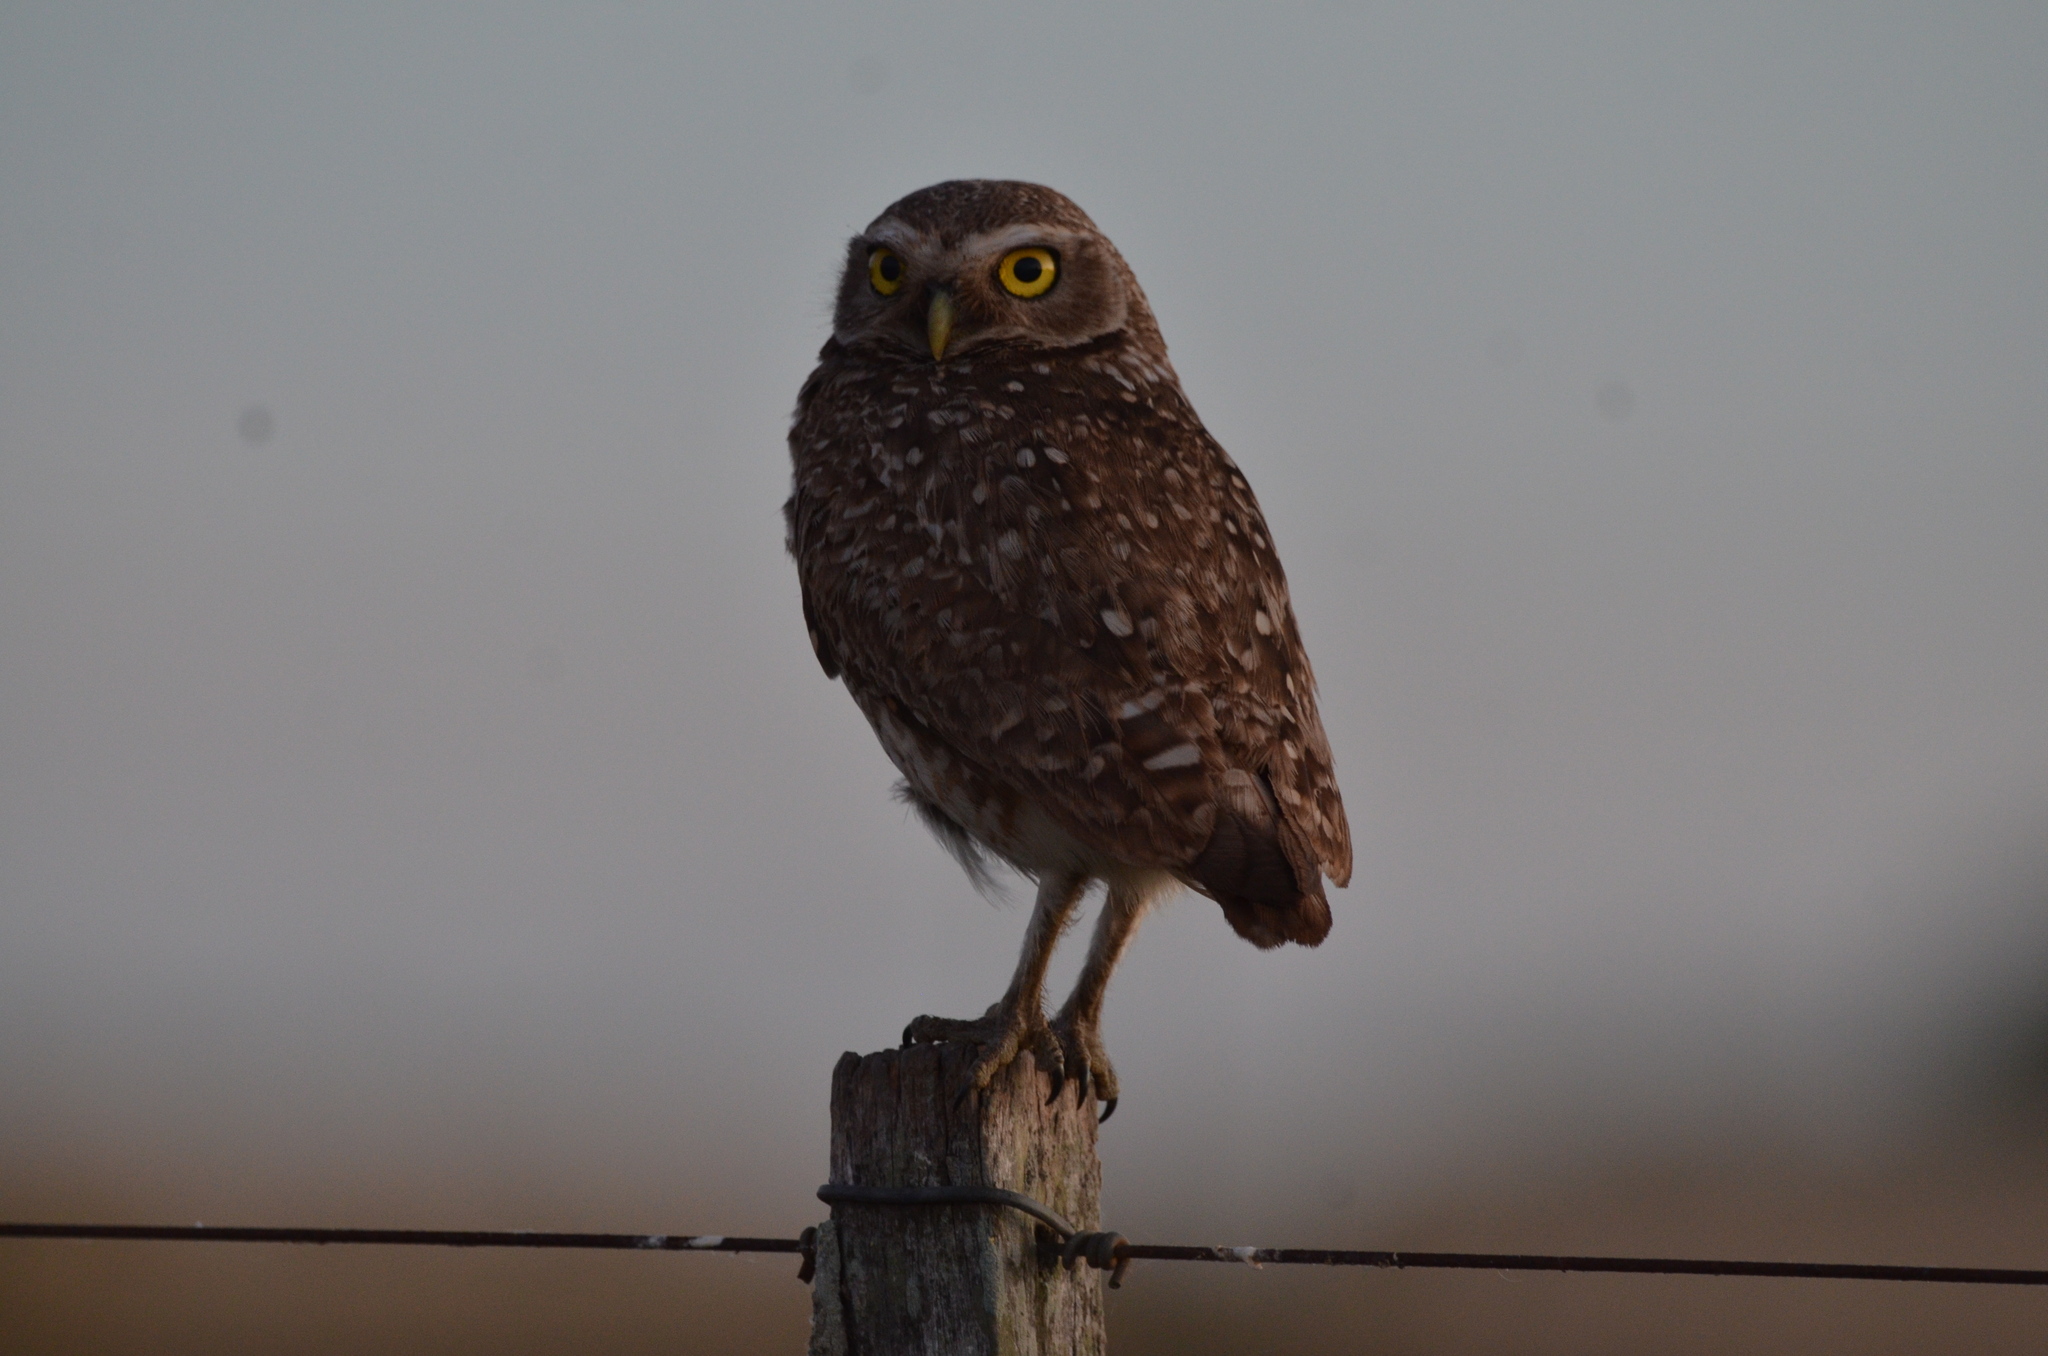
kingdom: Animalia
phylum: Chordata
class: Aves
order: Strigiformes
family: Strigidae
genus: Athene
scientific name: Athene cunicularia
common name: Burrowing owl
